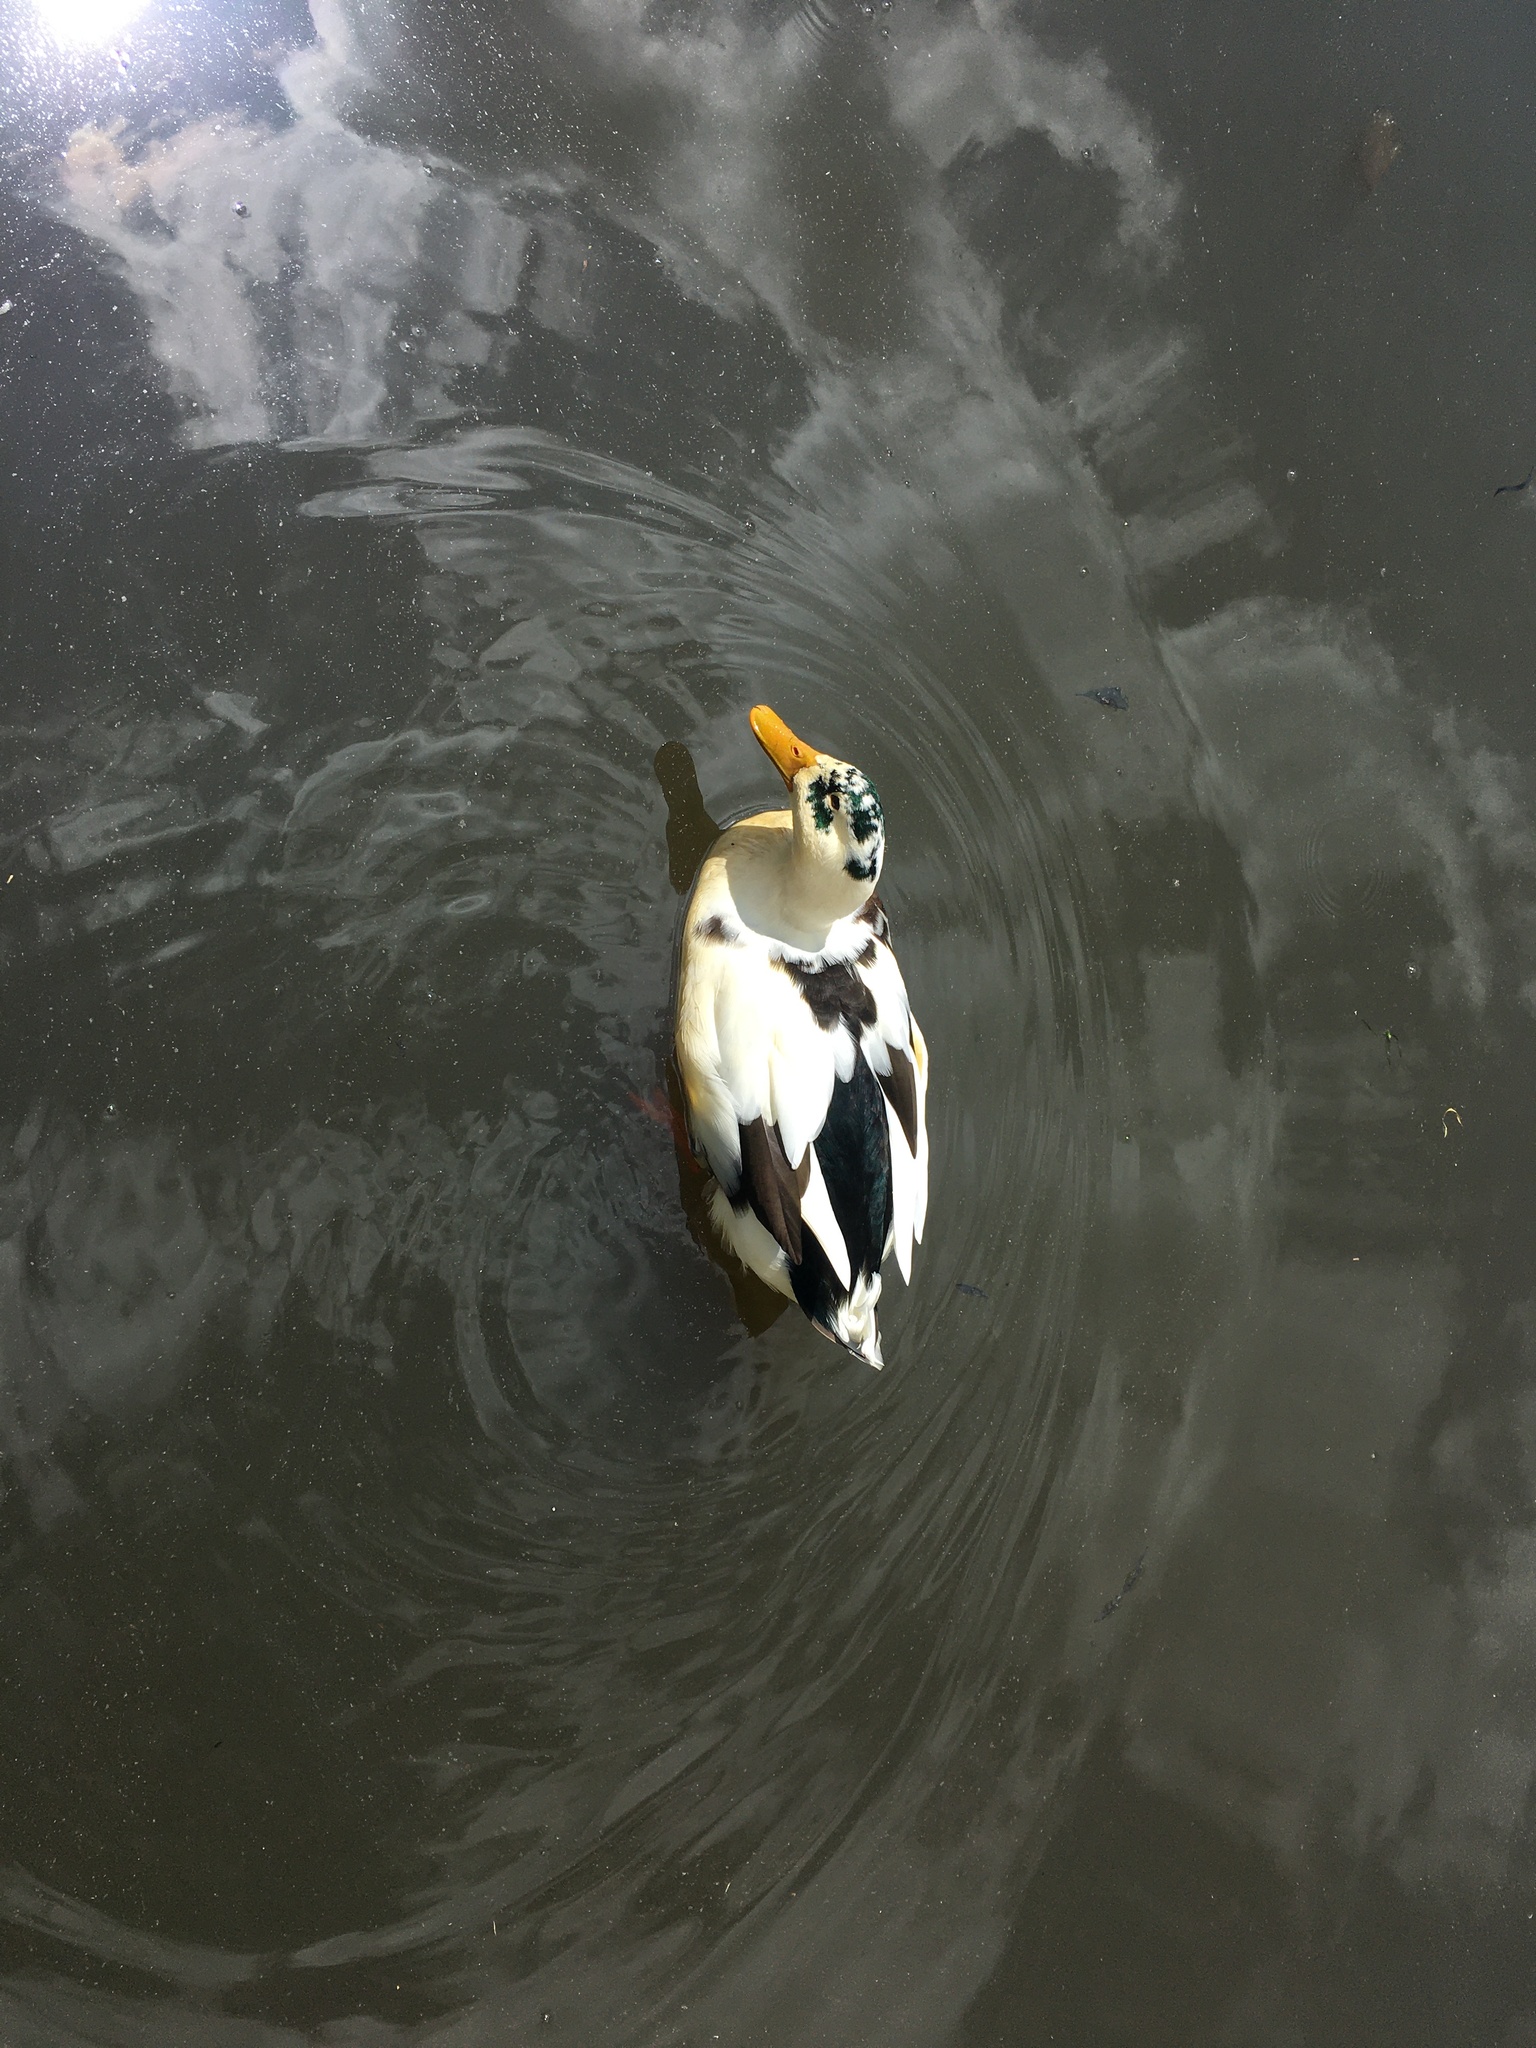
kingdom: Animalia
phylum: Chordata
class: Aves
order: Anseriformes
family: Anatidae
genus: Anas
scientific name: Anas platyrhynchos
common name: Mallard
